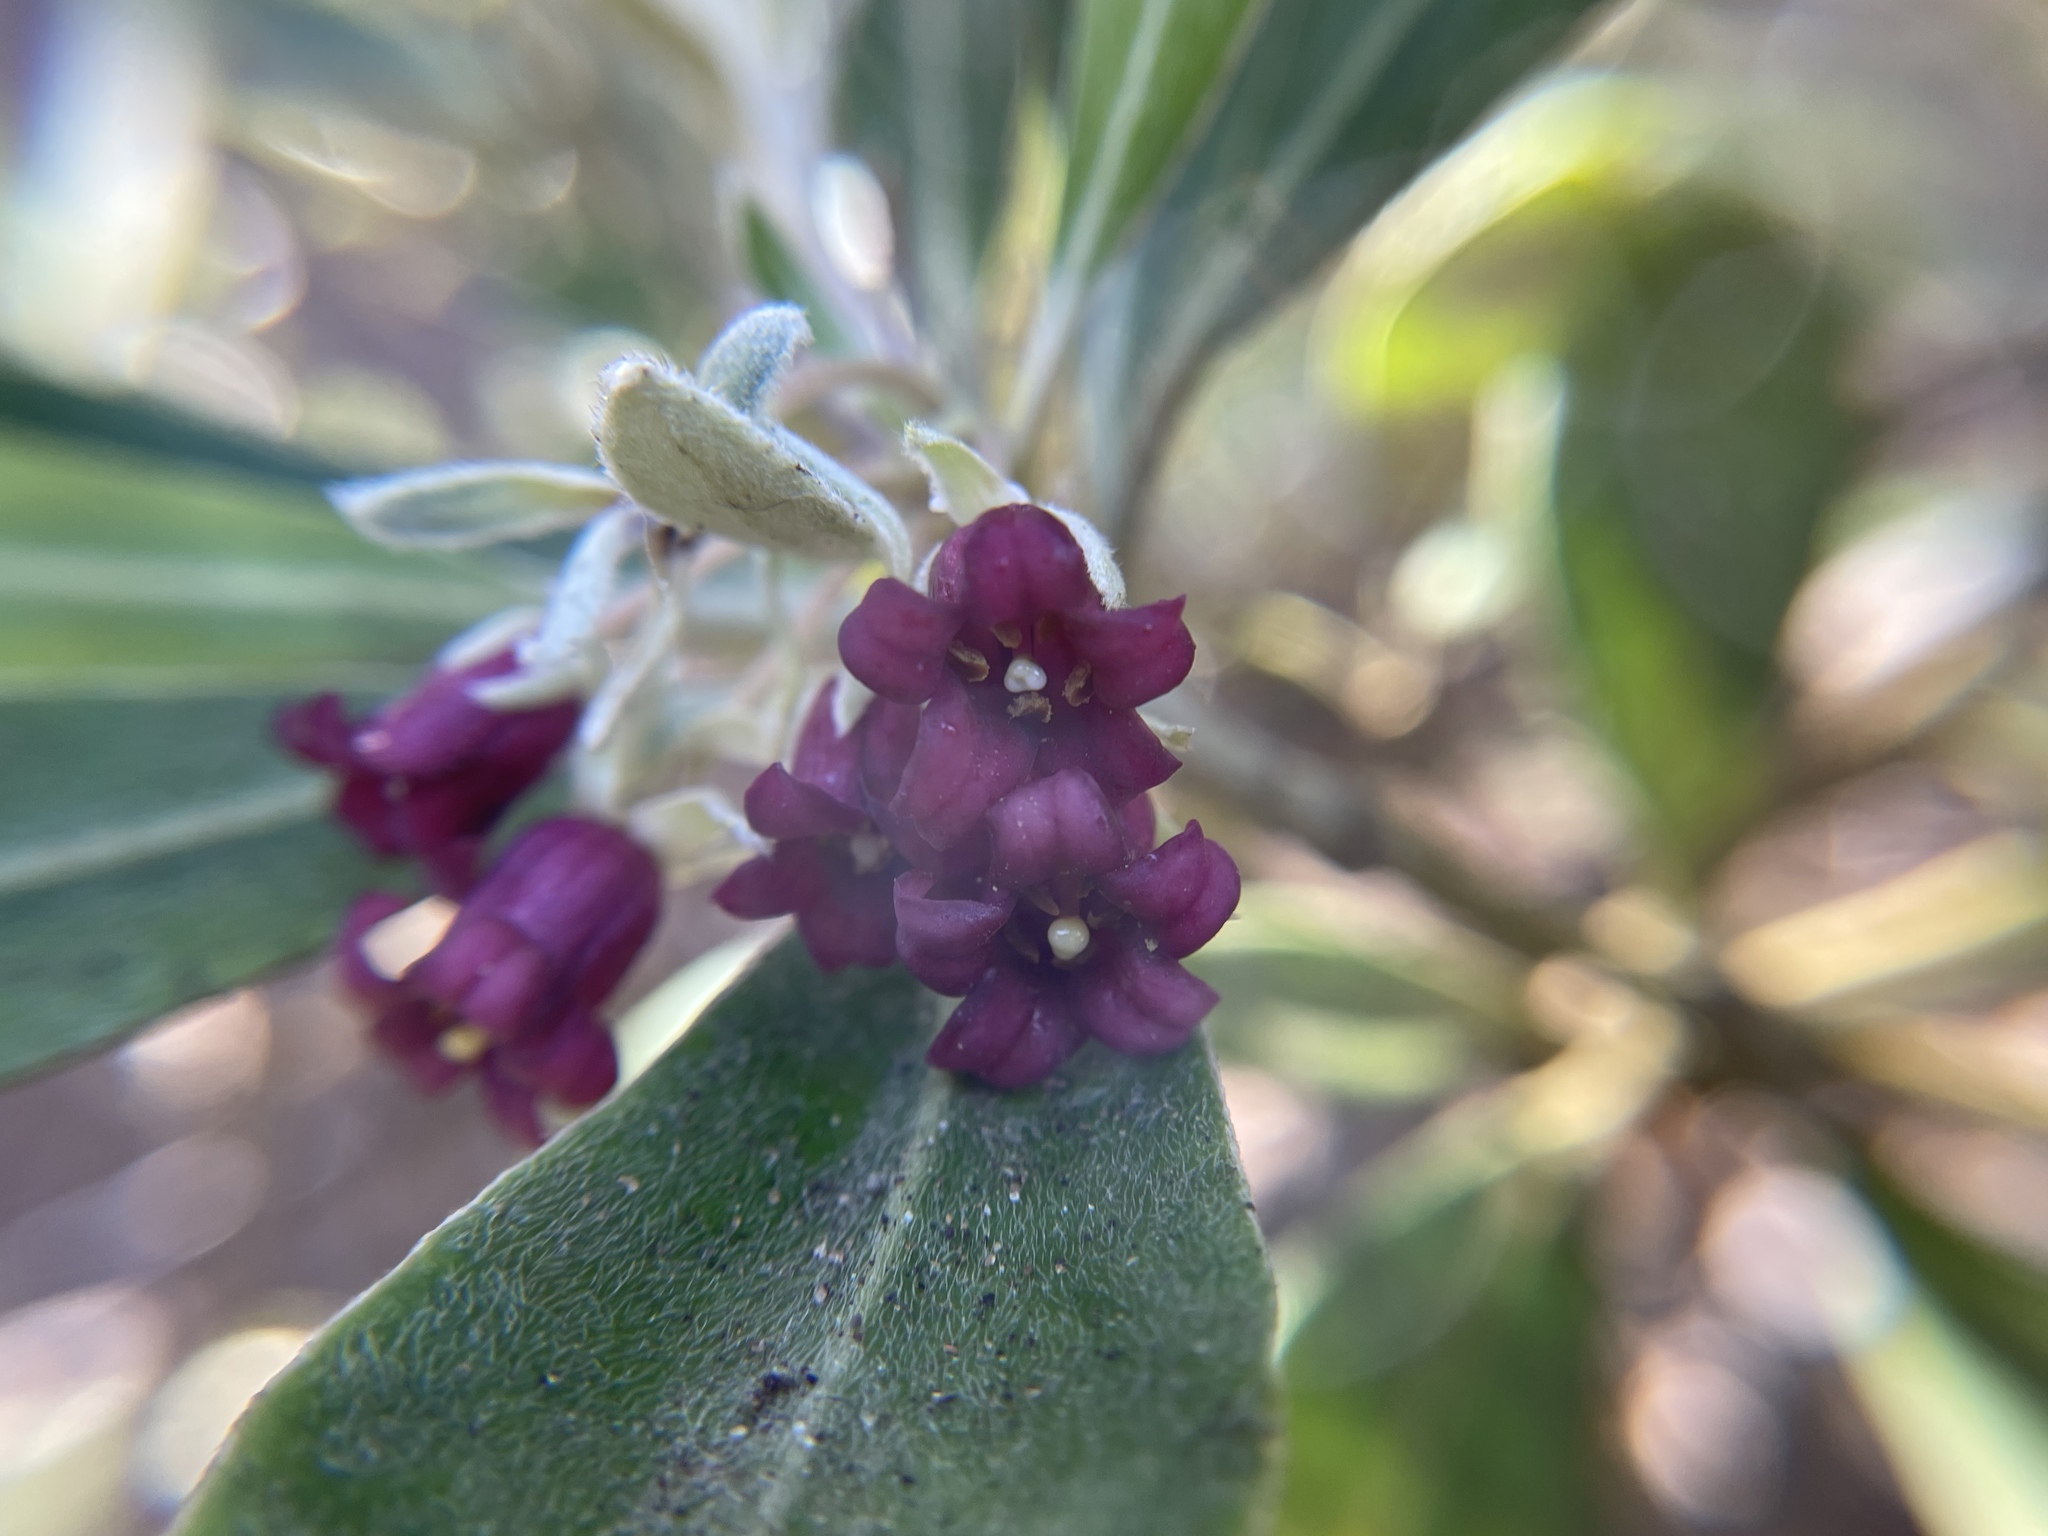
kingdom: Plantae
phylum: Tracheophyta
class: Magnoliopsida
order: Apiales
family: Pittosporaceae
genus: Pittosporum
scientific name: Pittosporum crassifolium
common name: Karo
